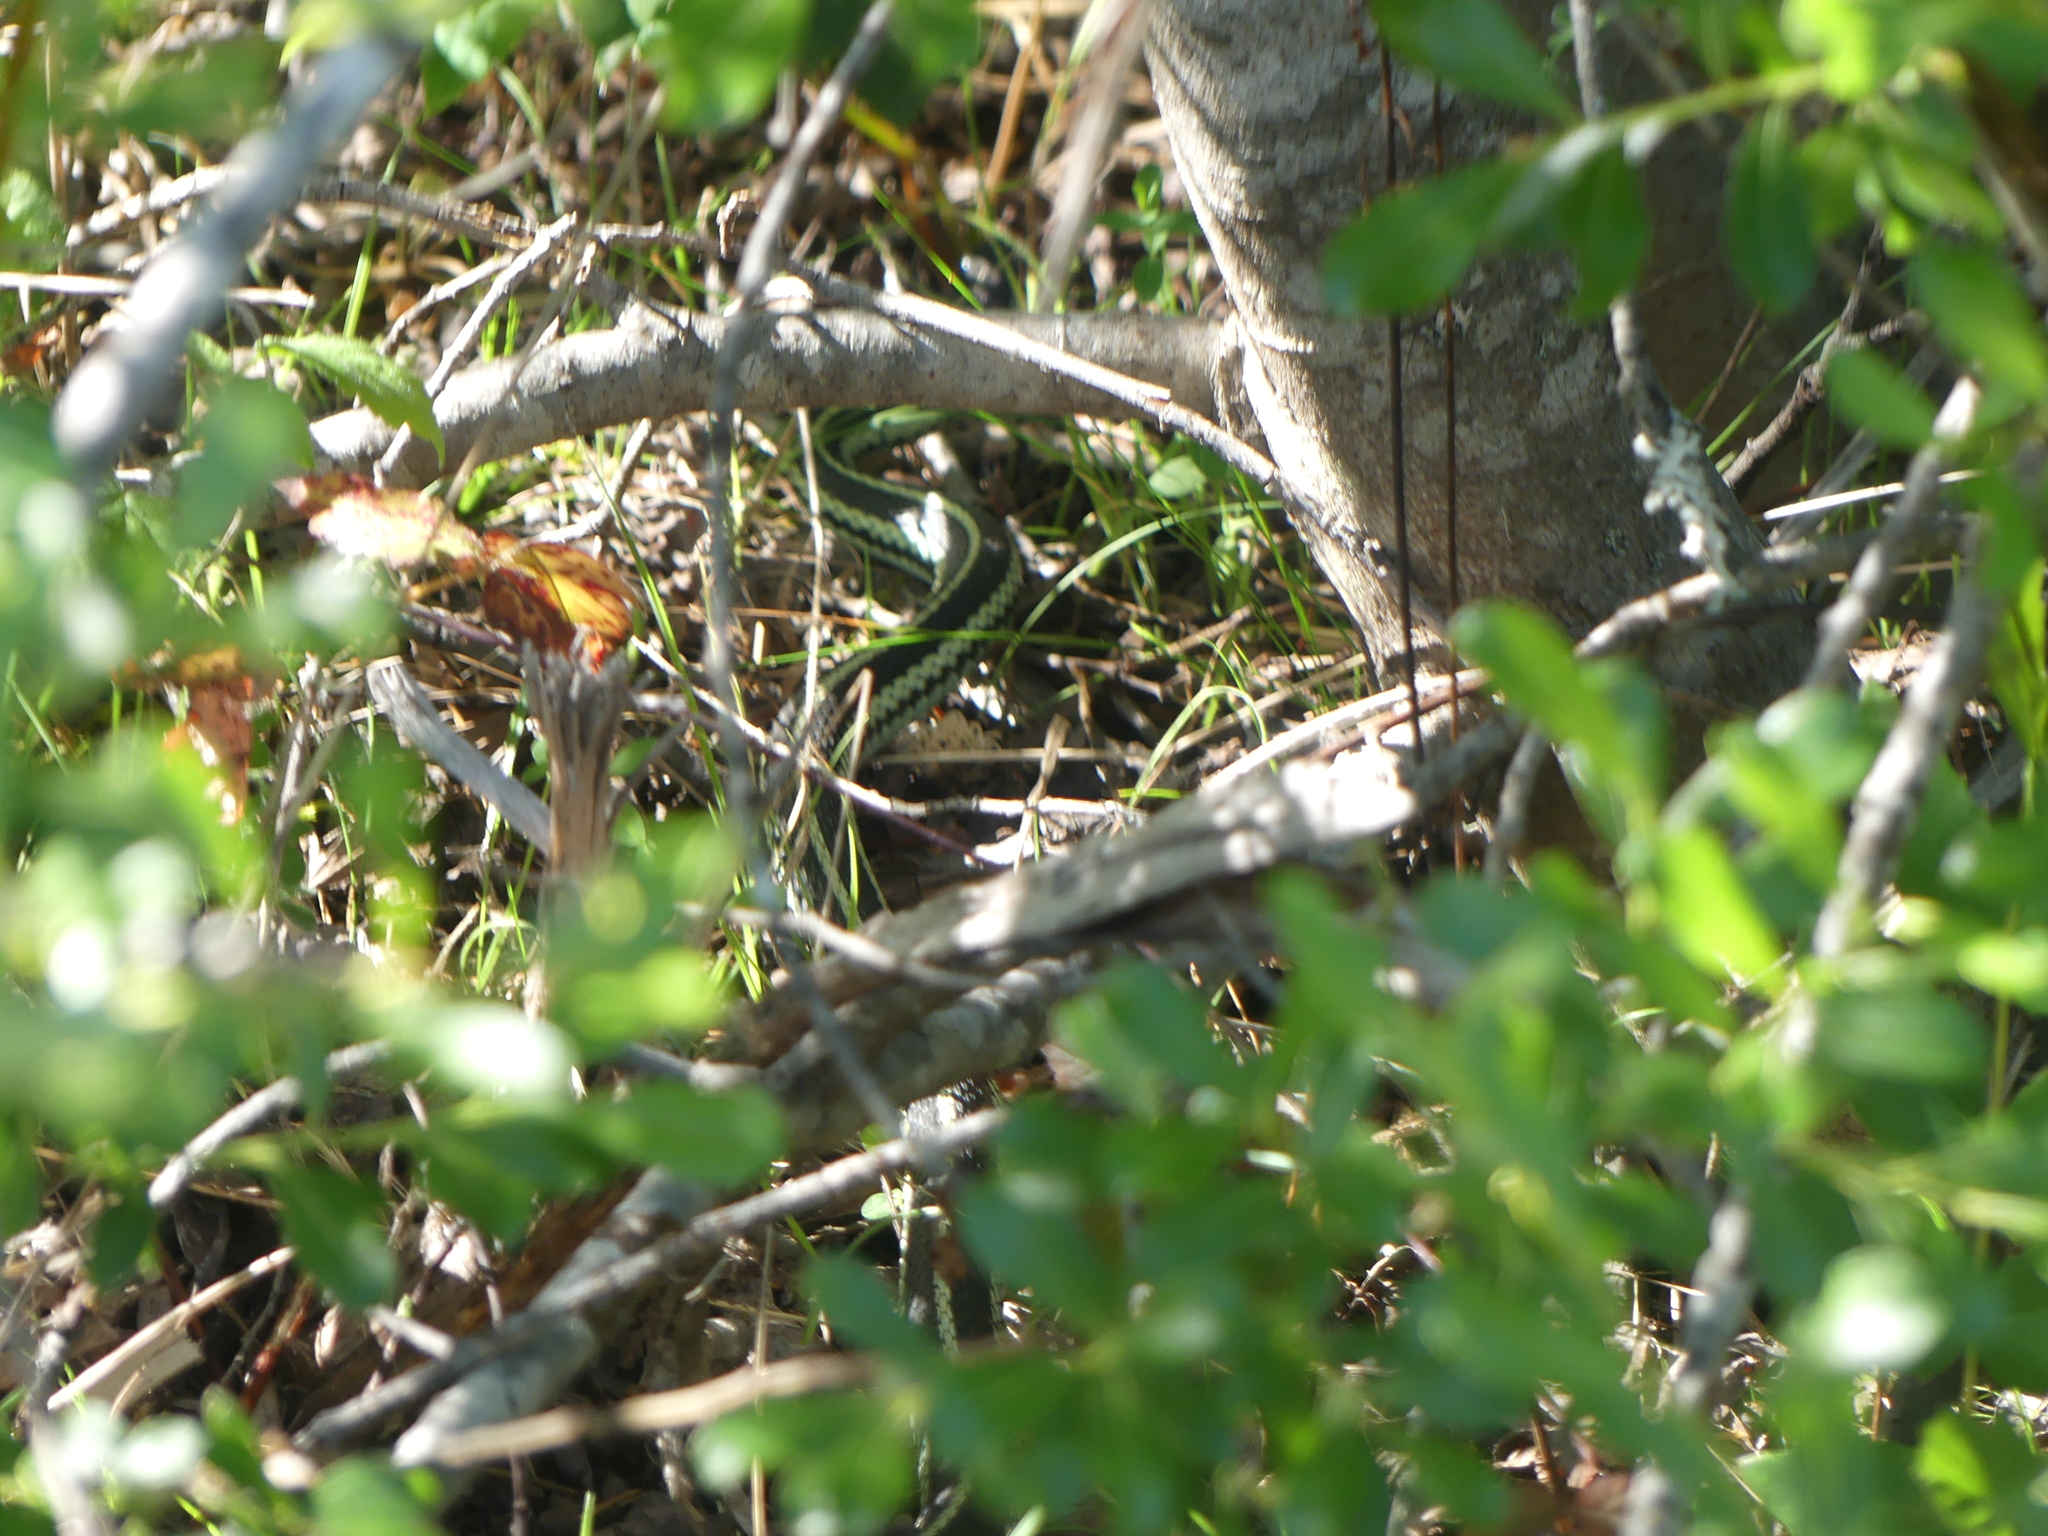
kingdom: Animalia
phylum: Chordata
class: Squamata
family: Colubridae
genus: Thamnophis
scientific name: Thamnophis sirtalis
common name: Common garter snake
